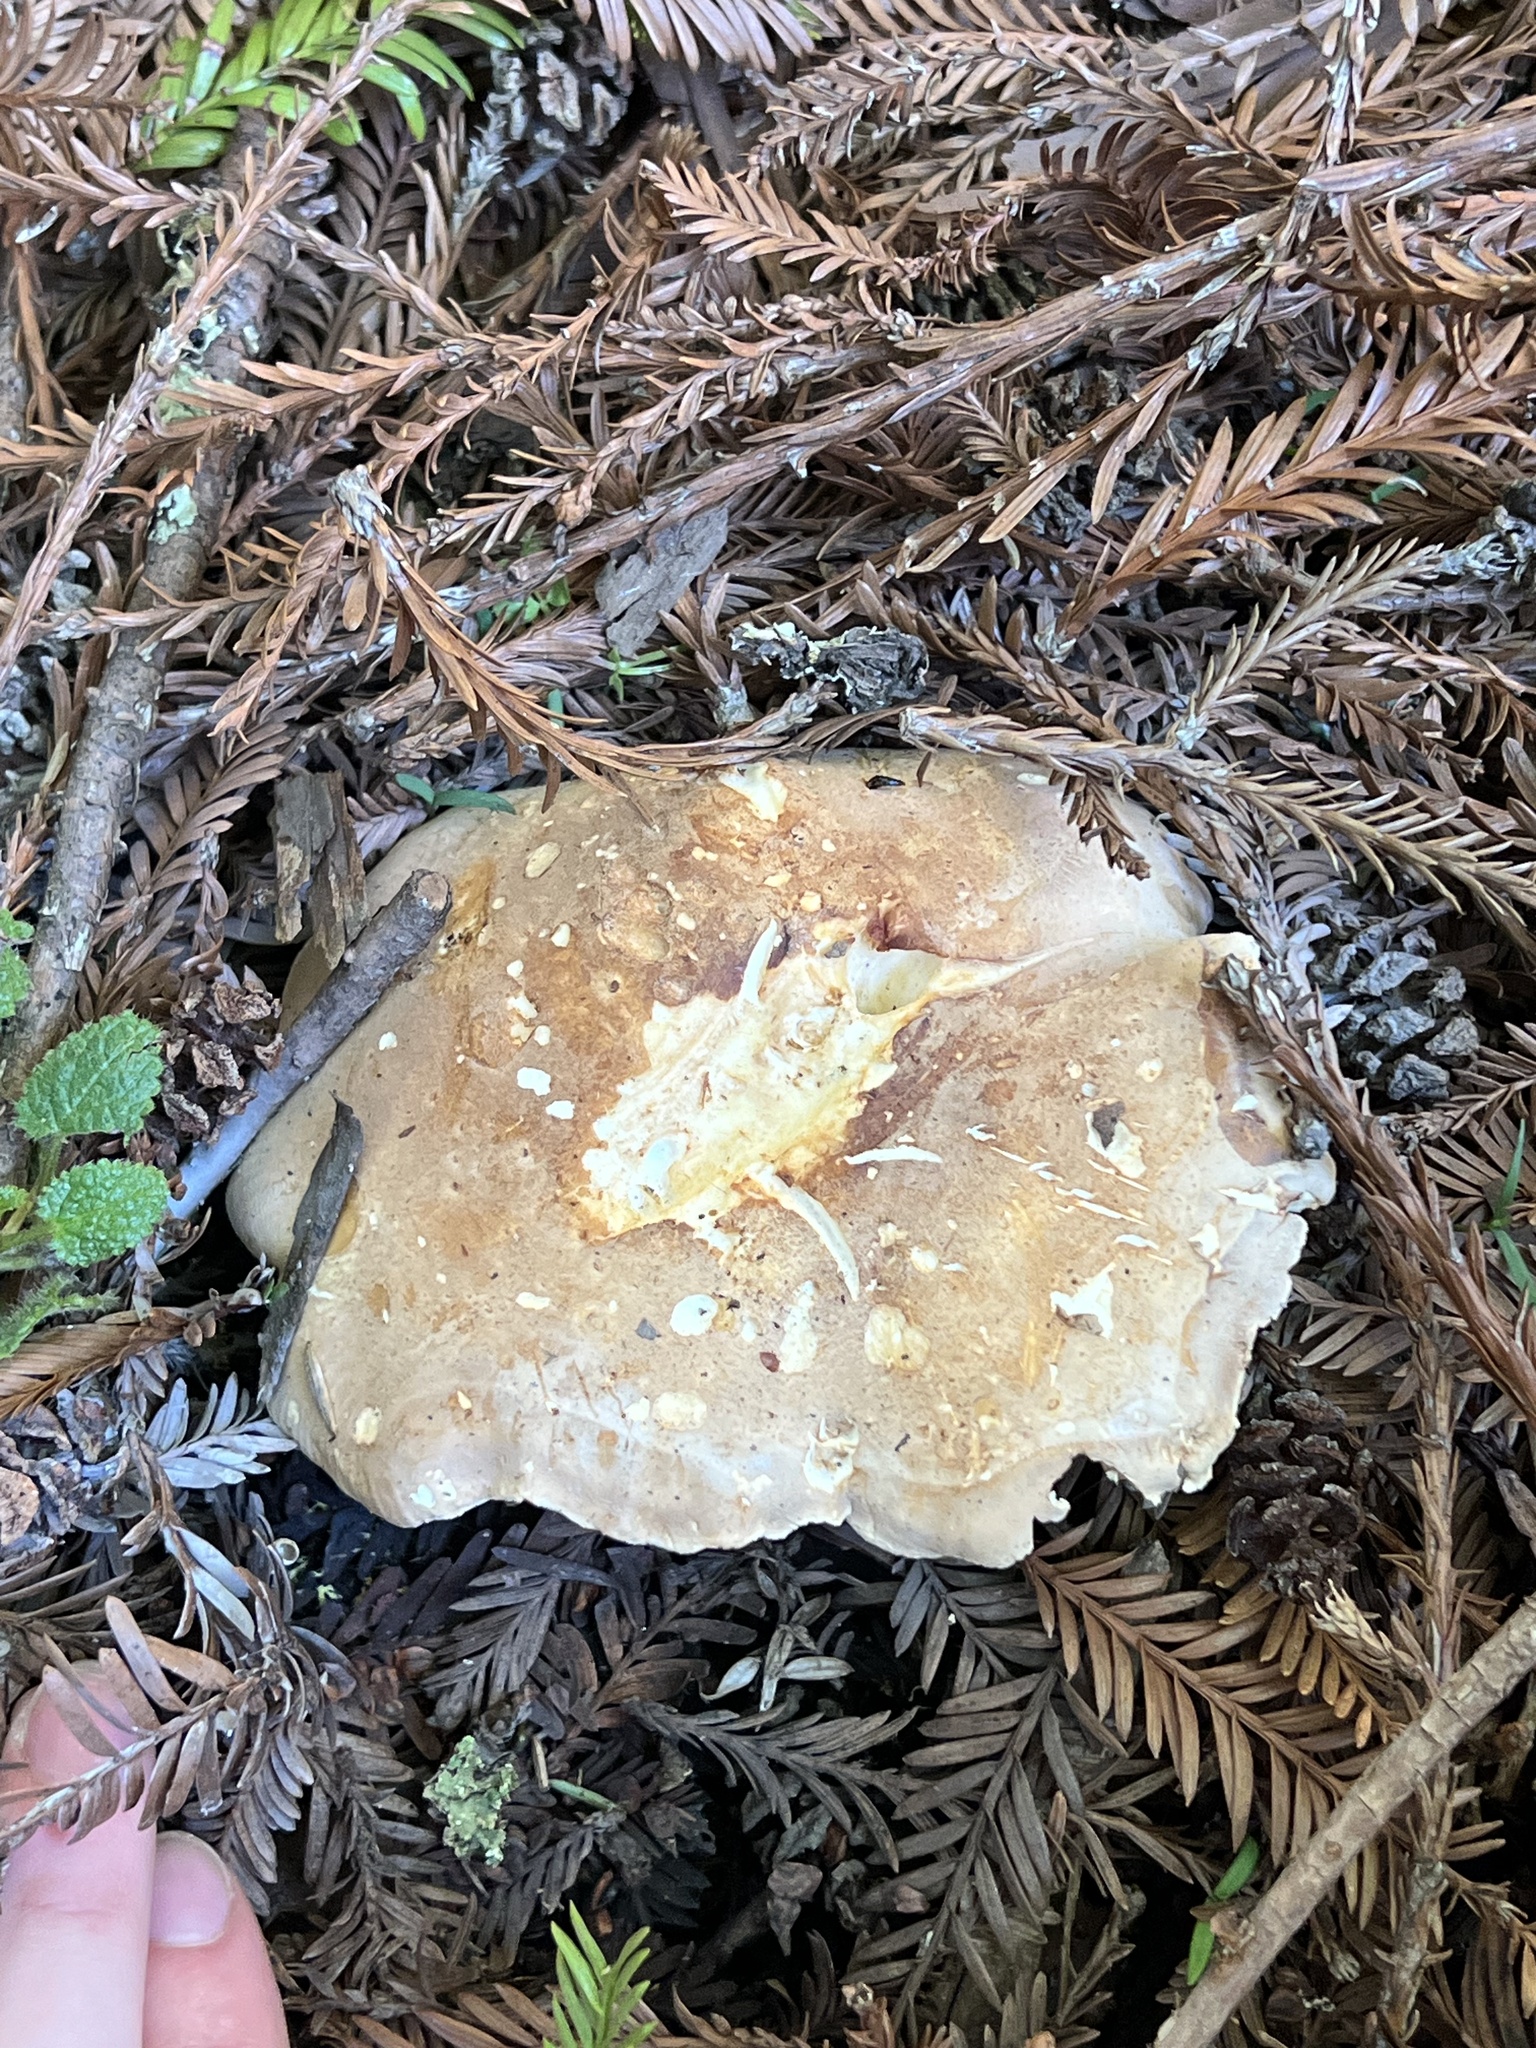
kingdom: Fungi
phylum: Basidiomycota
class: Agaricomycetes
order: Agaricales
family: Tricholomataceae
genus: Leucopaxillus
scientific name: Leucopaxillus gentianeus
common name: Bitter funnel
